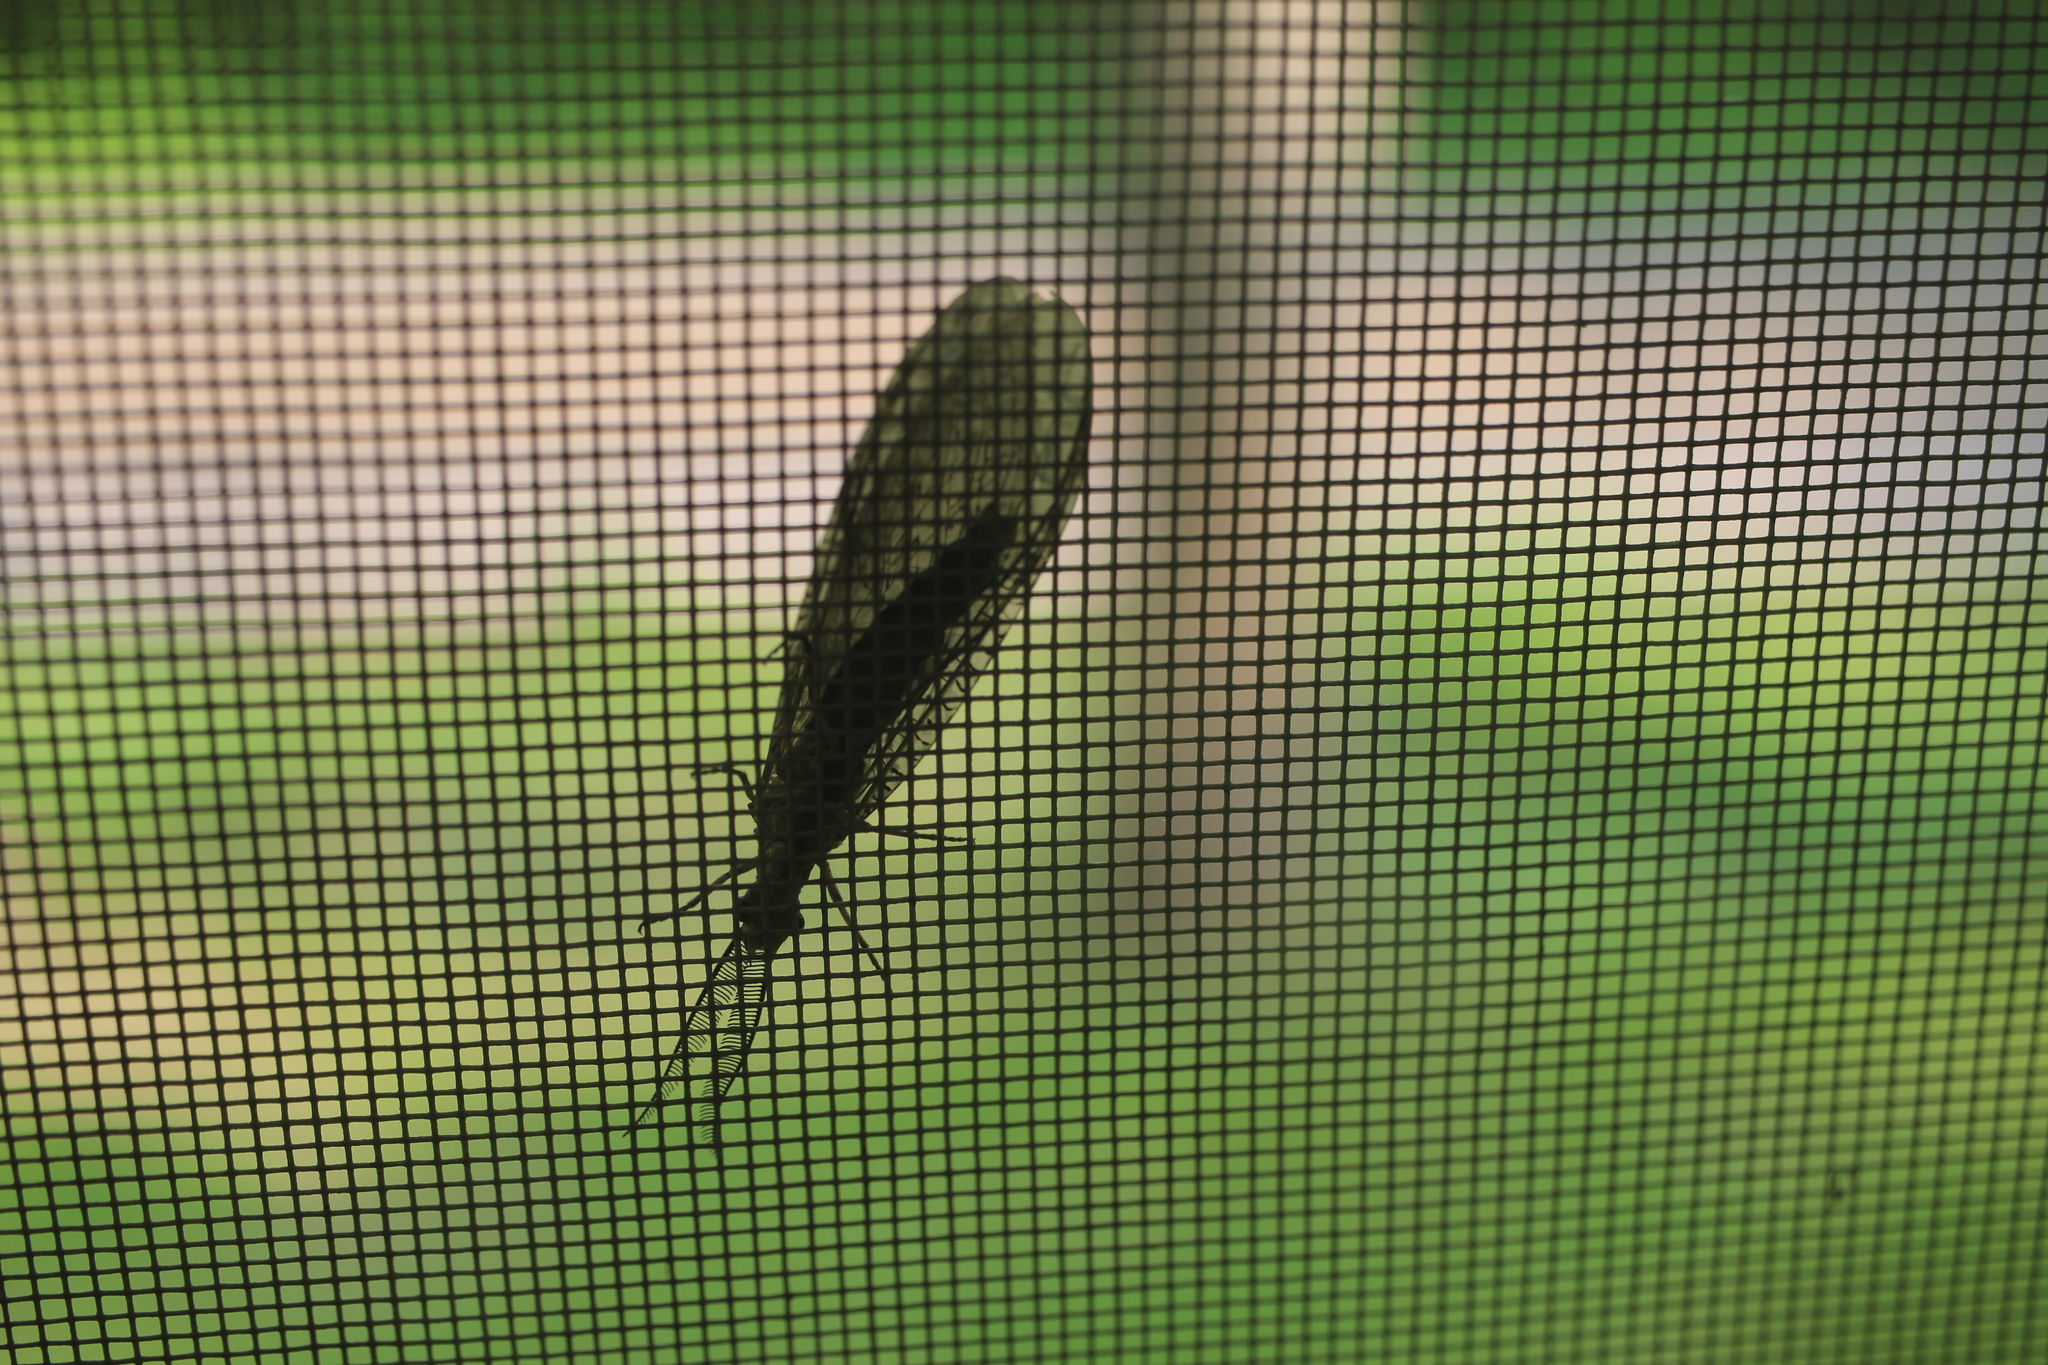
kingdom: Animalia
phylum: Arthropoda
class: Insecta
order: Megaloptera
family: Corydalidae
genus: Chauliodes
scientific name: Chauliodes rastricornis
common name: Spring fishfly
